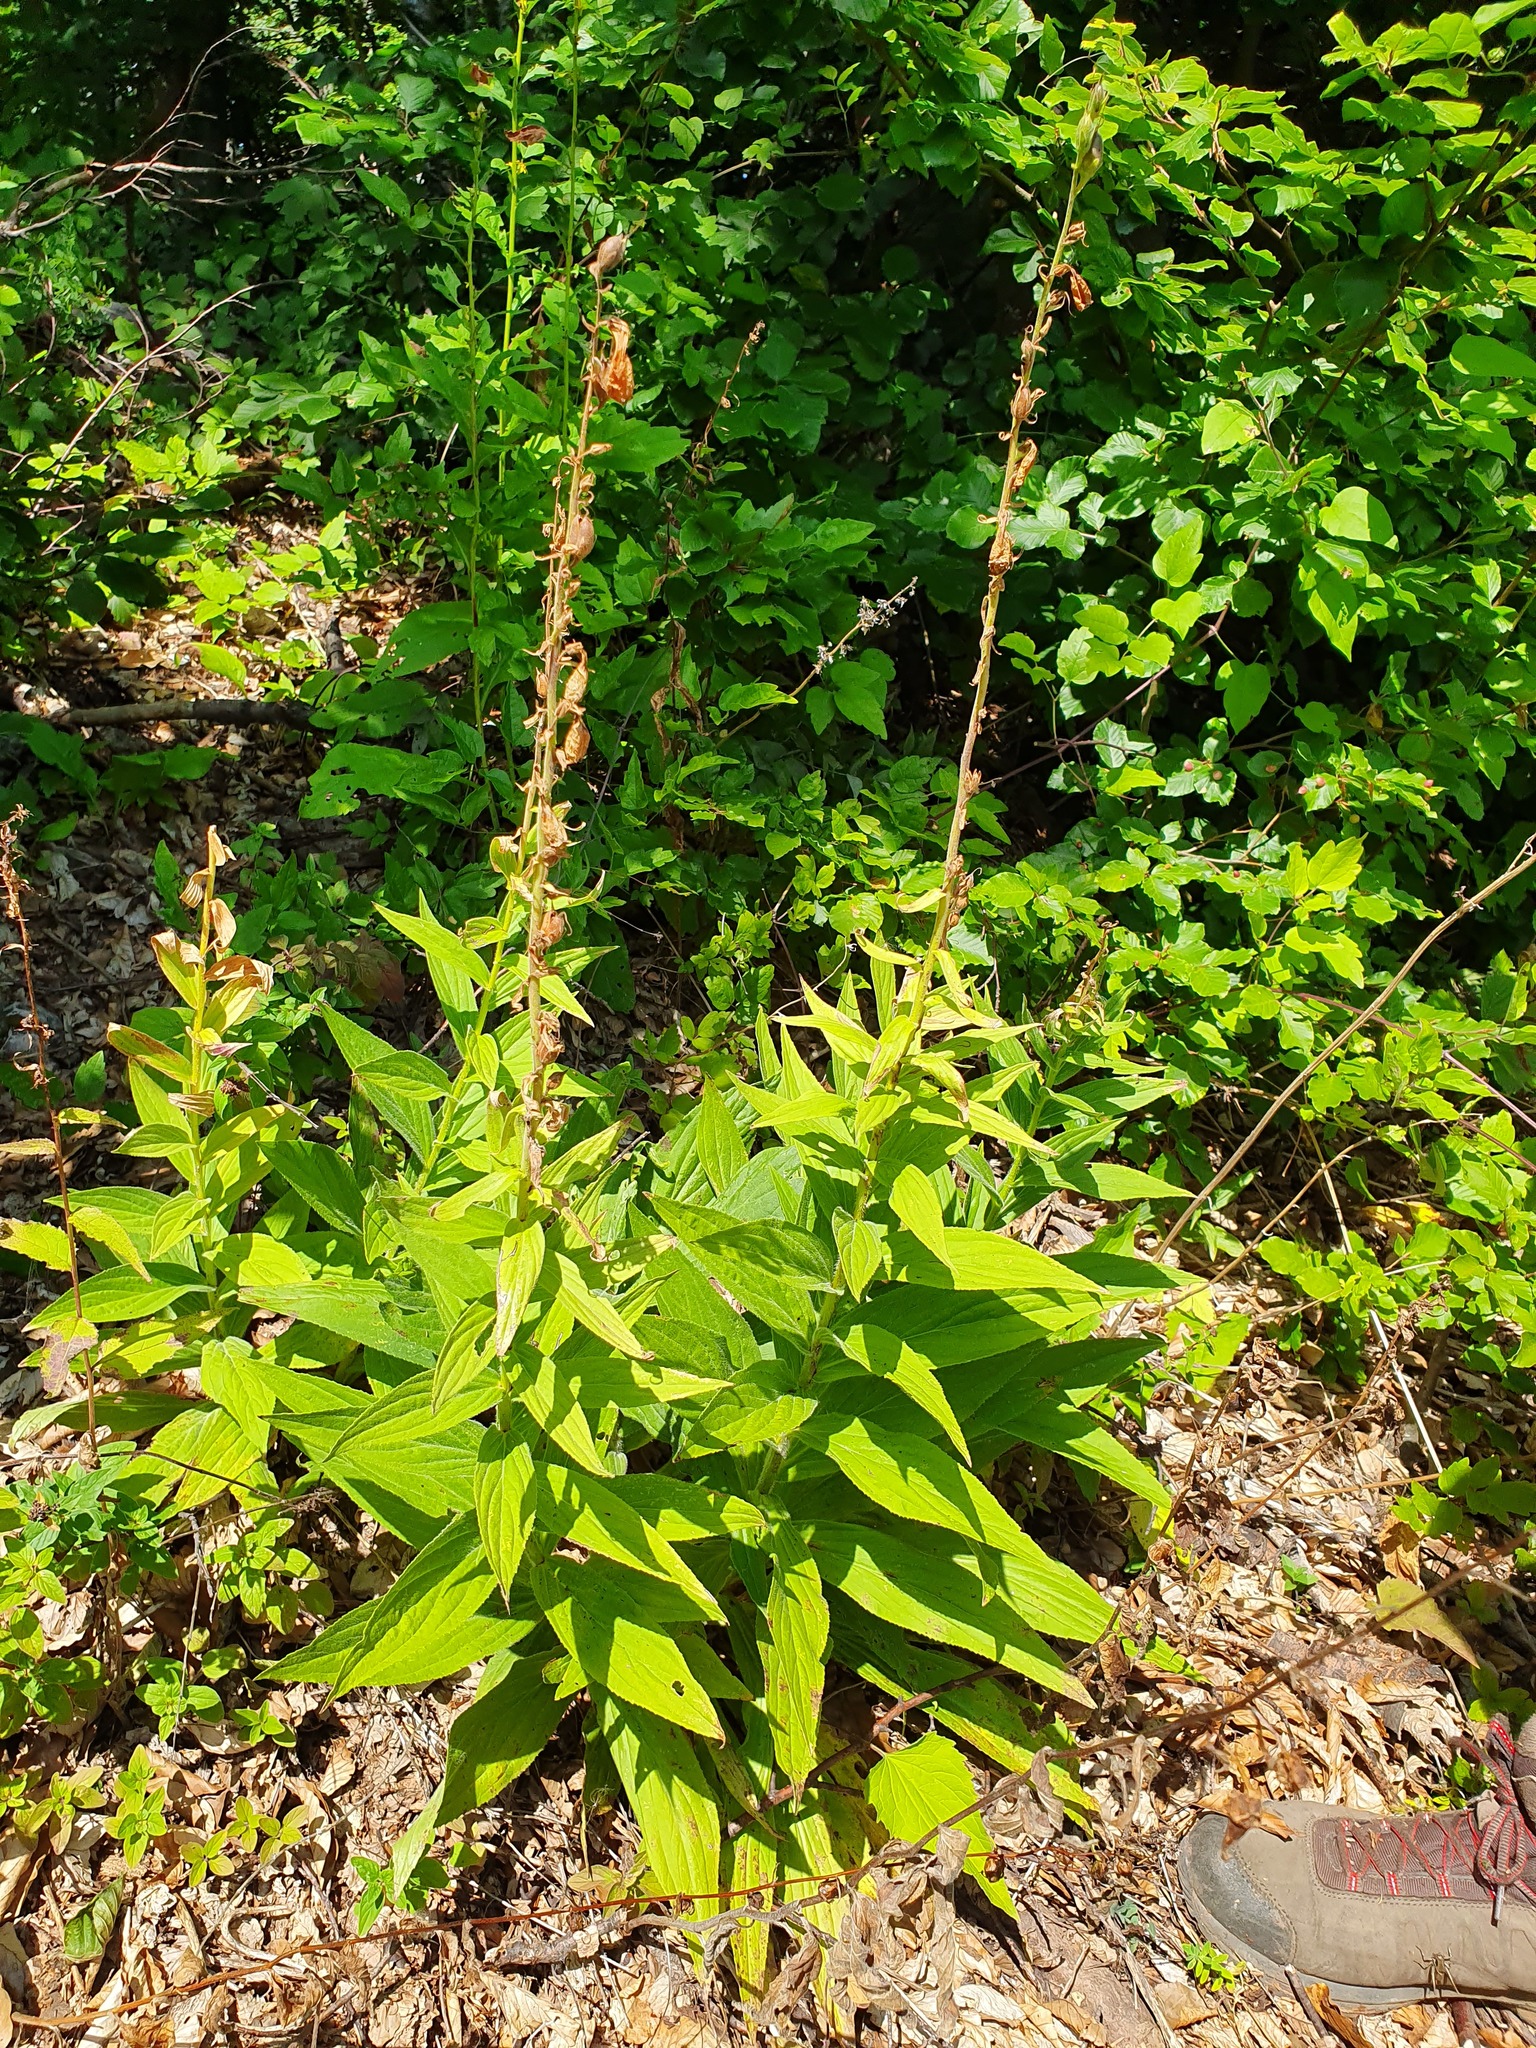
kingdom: Plantae
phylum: Tracheophyta
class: Magnoliopsida
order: Lamiales
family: Plantaginaceae
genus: Digitalis
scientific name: Digitalis grandiflora
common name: Yellow foxglove
